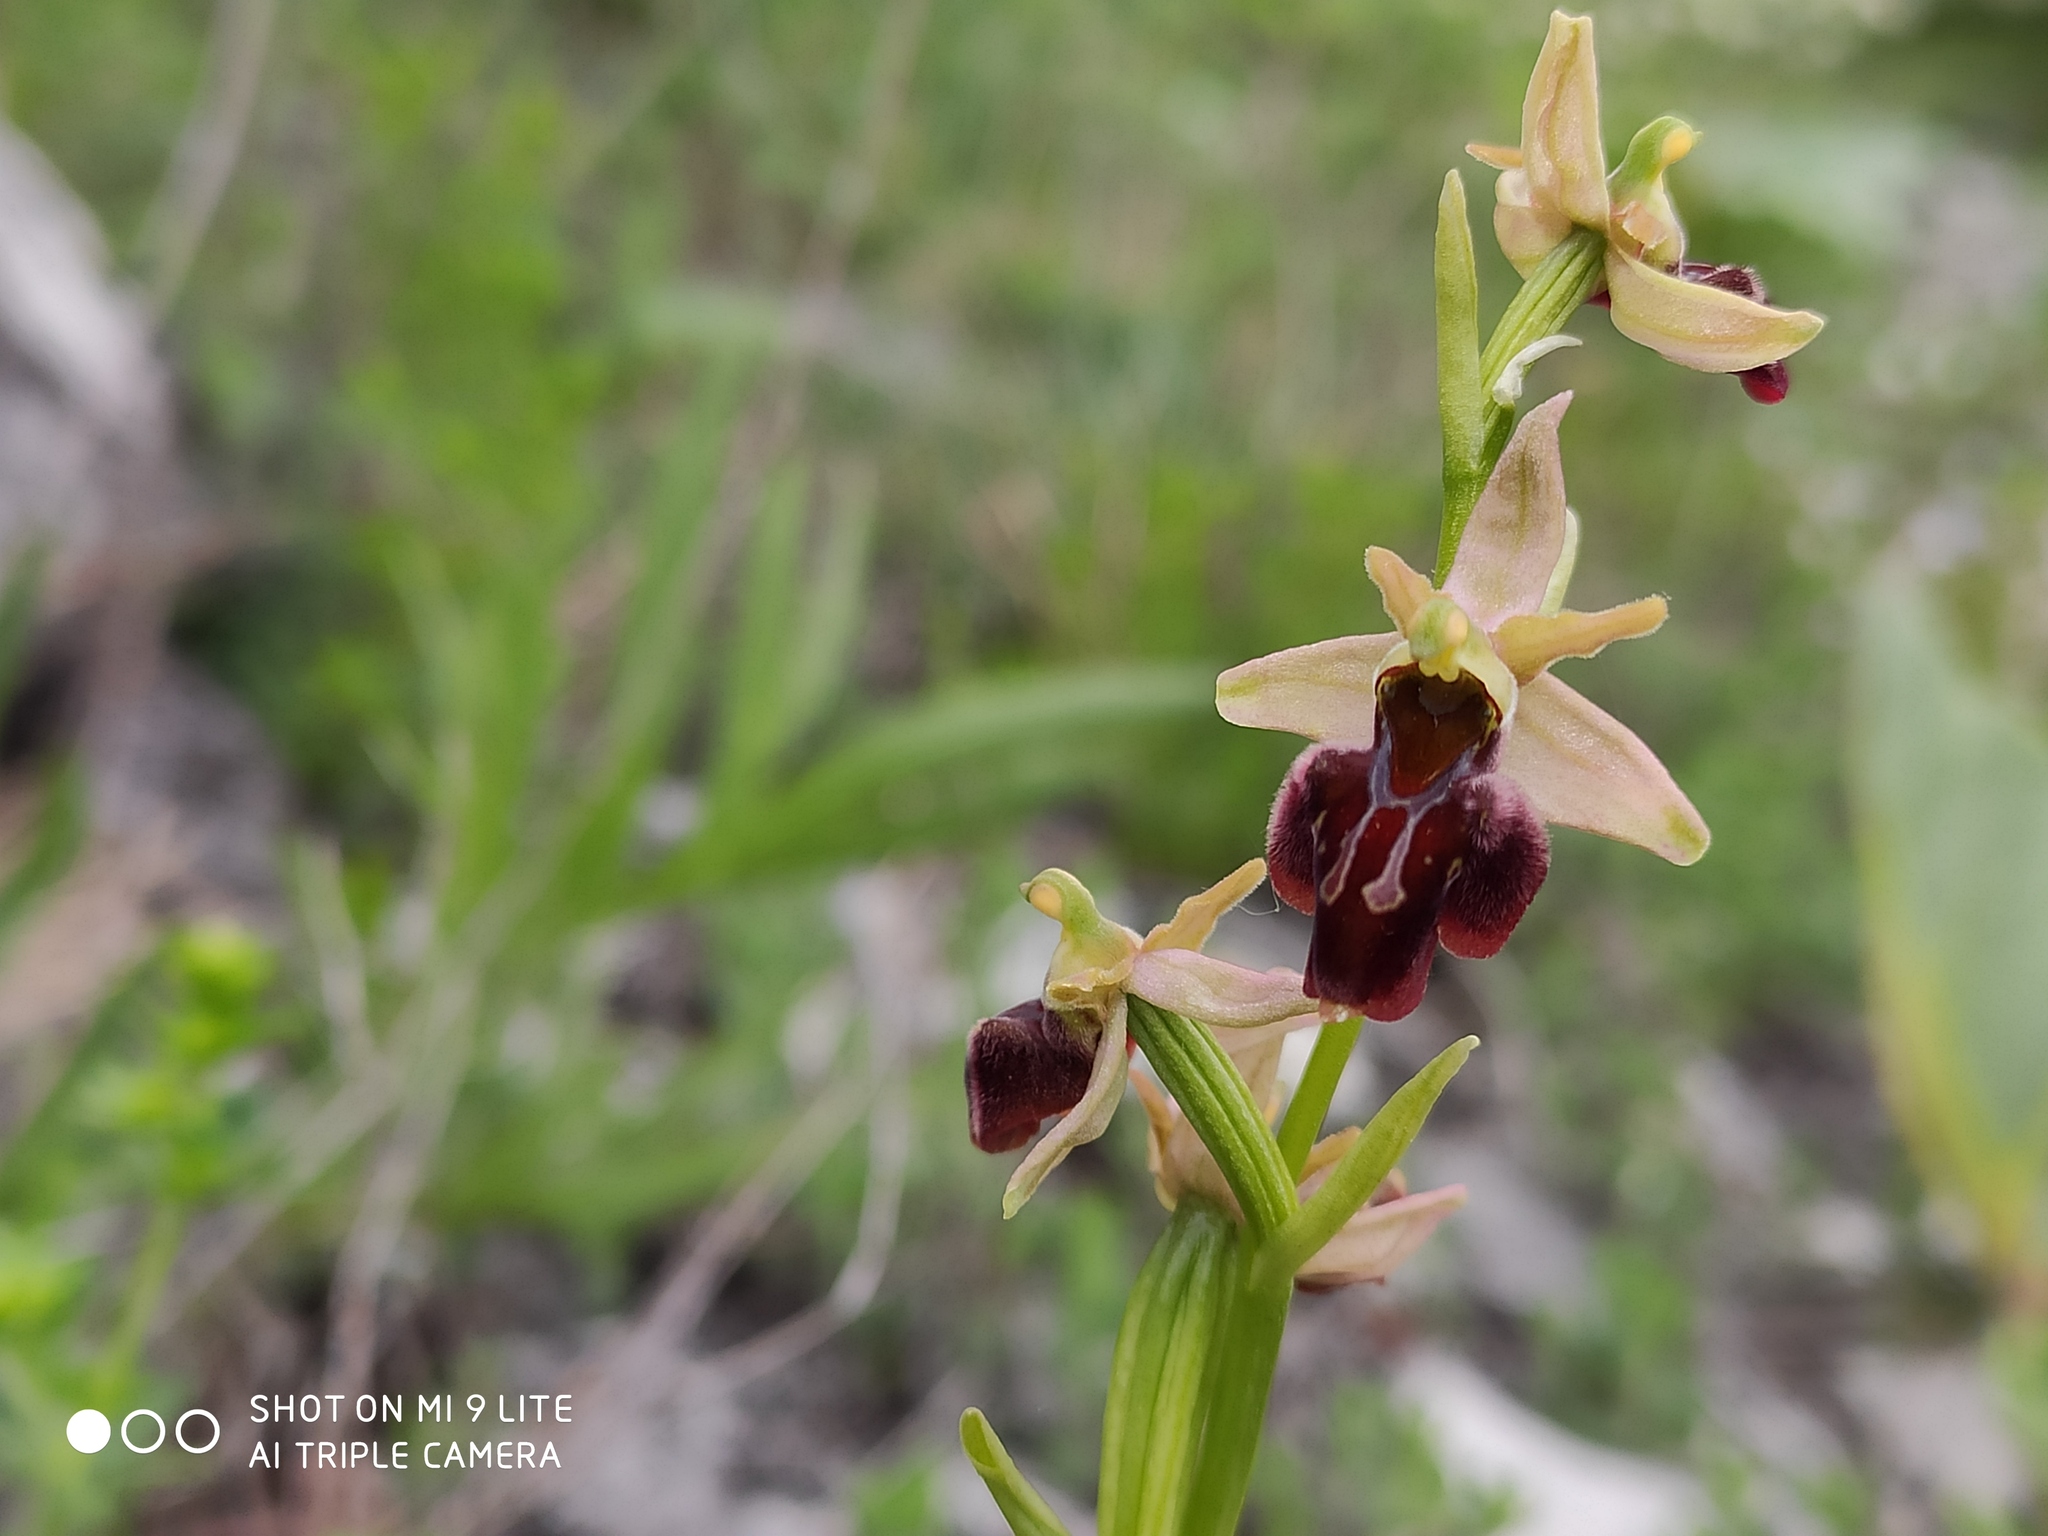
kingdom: Plantae
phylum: Tracheophyta
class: Liliopsida
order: Asparagales
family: Orchidaceae
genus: Ophrys
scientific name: Ophrys sphegodes
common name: Early spider-orchid
